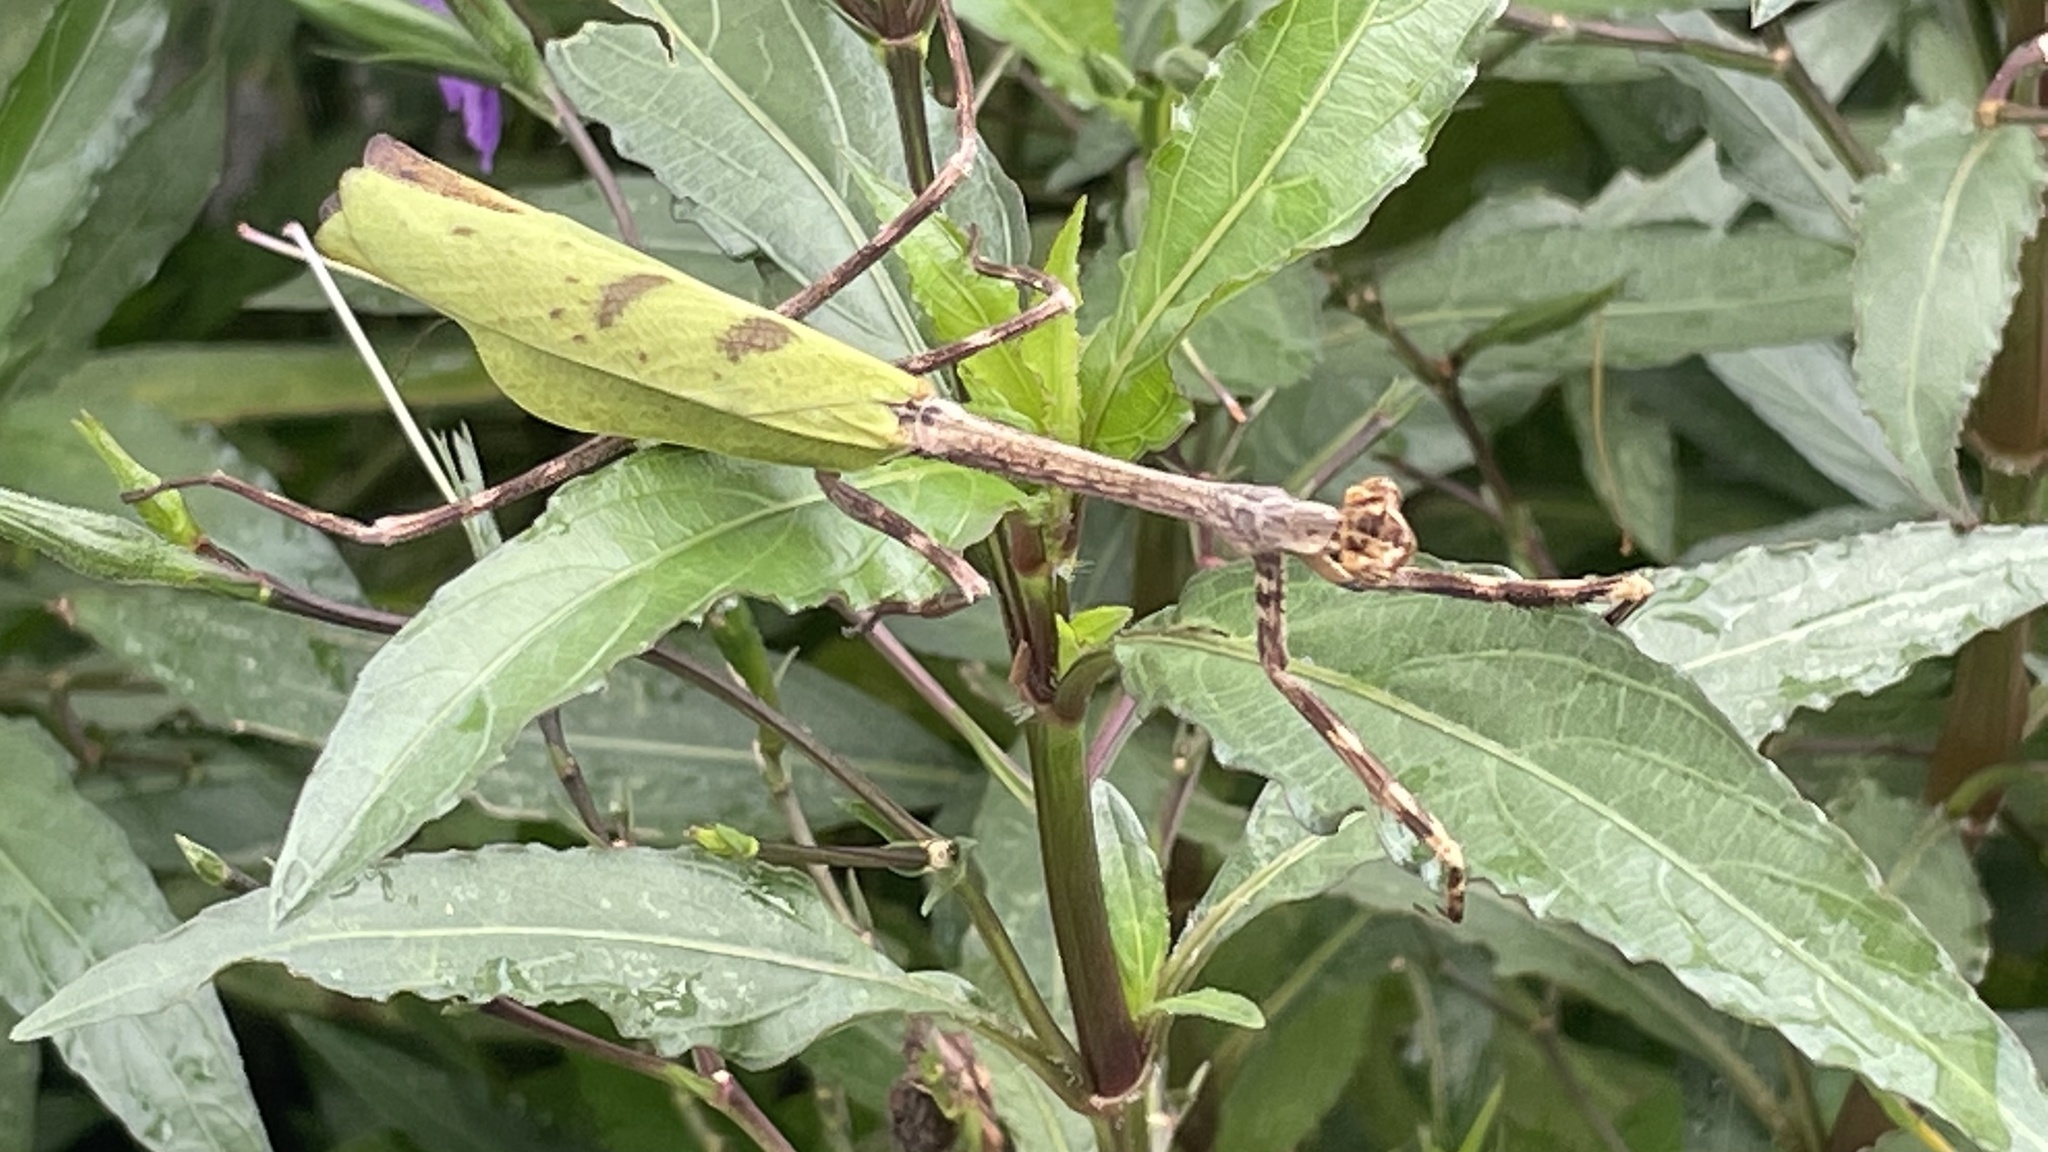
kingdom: Animalia
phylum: Arthropoda
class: Insecta
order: Mantodea
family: Mantidae
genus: Pseudovates
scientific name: Pseudovates chlorophaea
